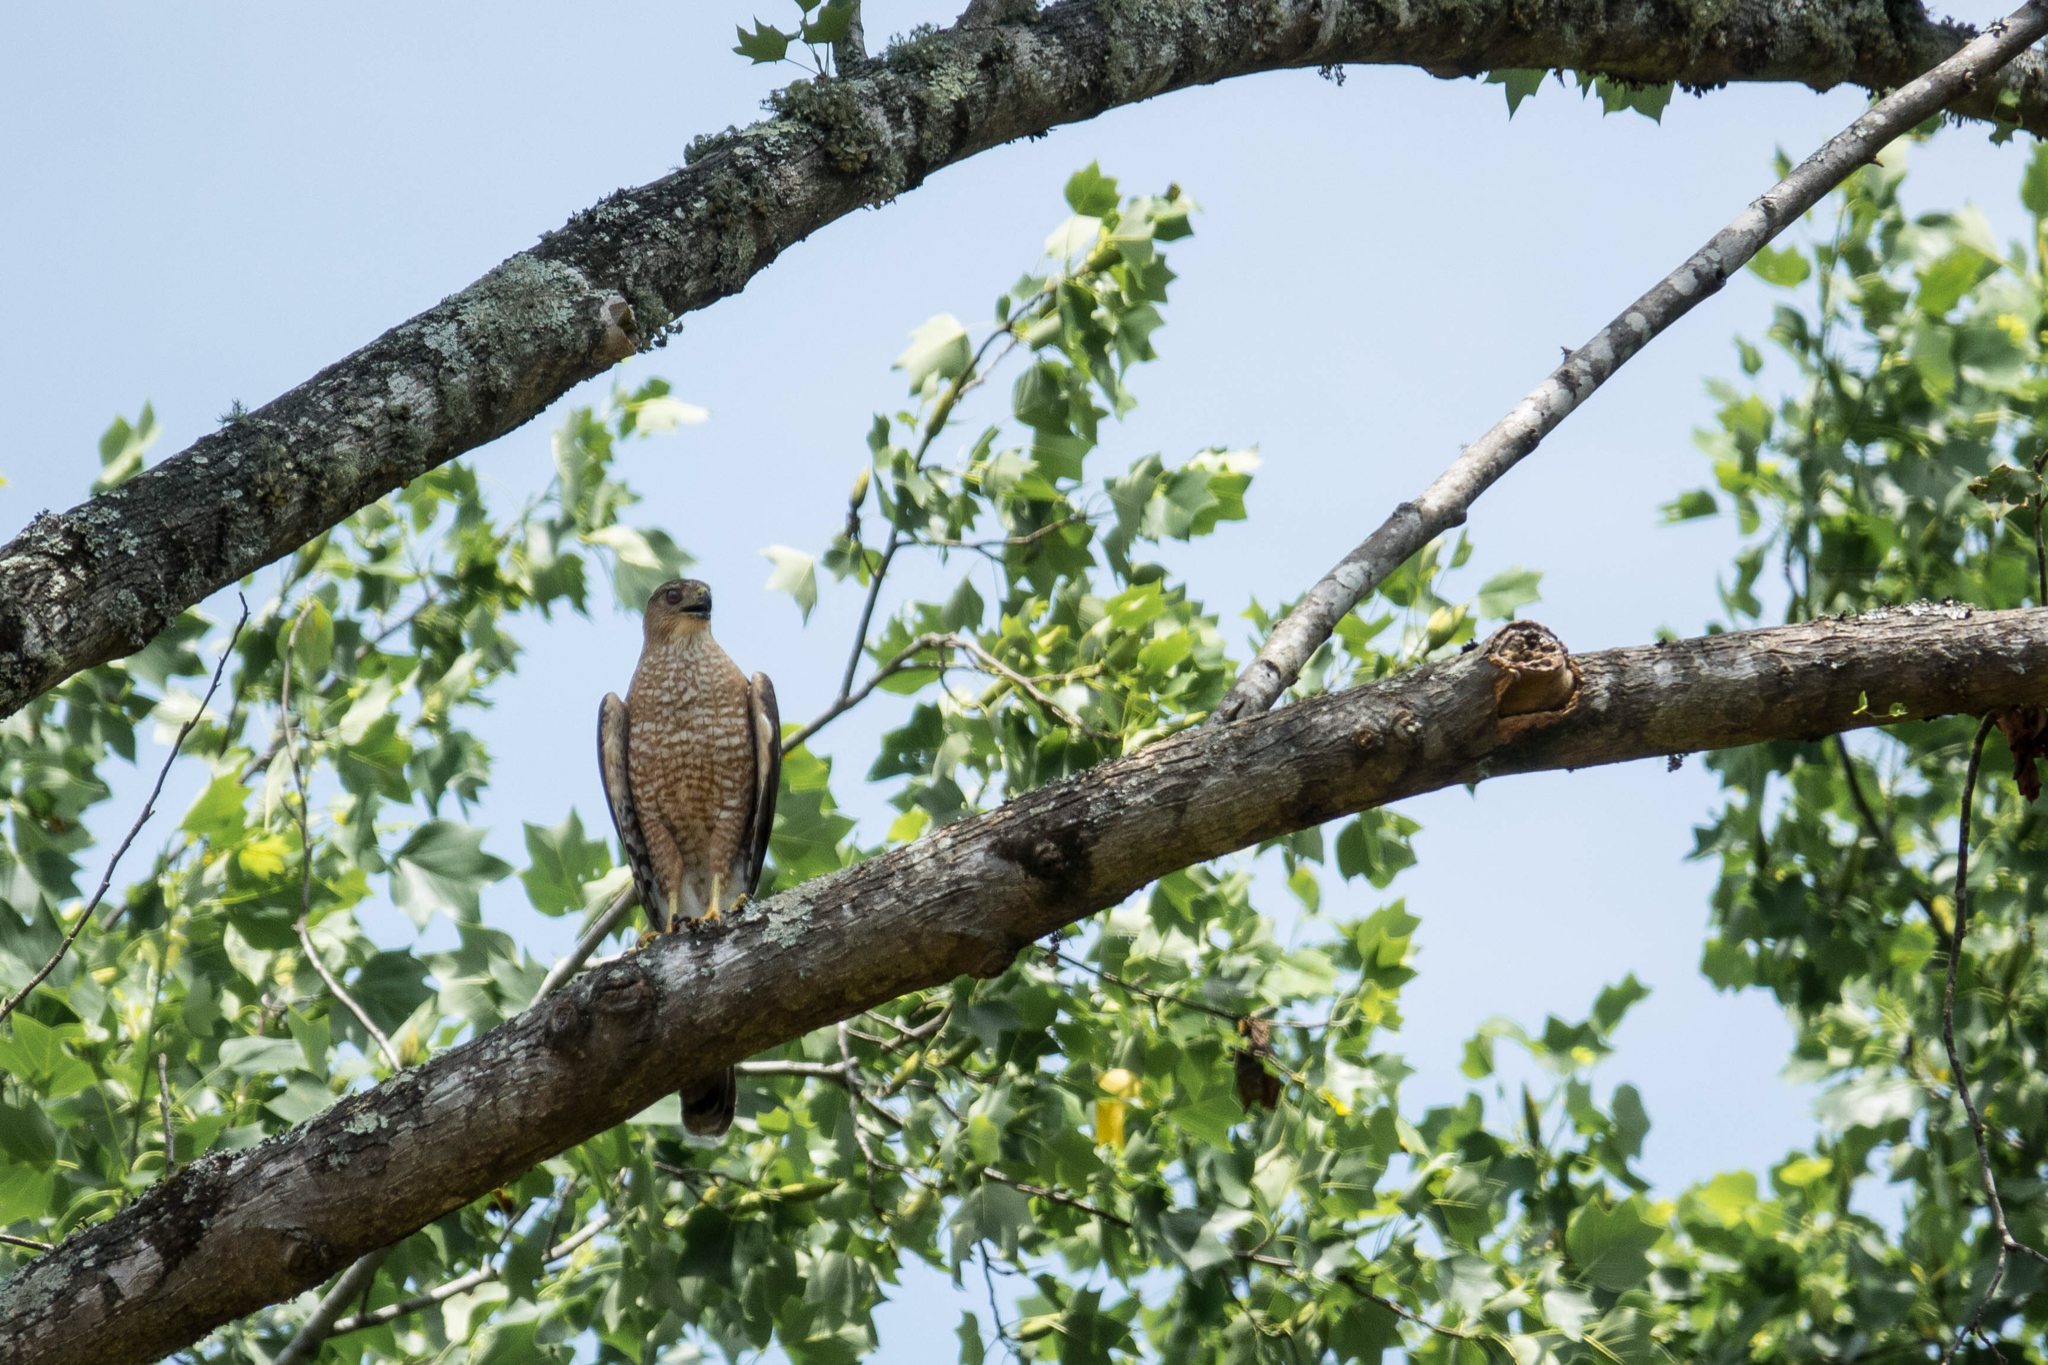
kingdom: Animalia
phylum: Chordata
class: Aves
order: Accipitriformes
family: Accipitridae
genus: Accipiter
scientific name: Accipiter cooperii
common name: Cooper's hawk
